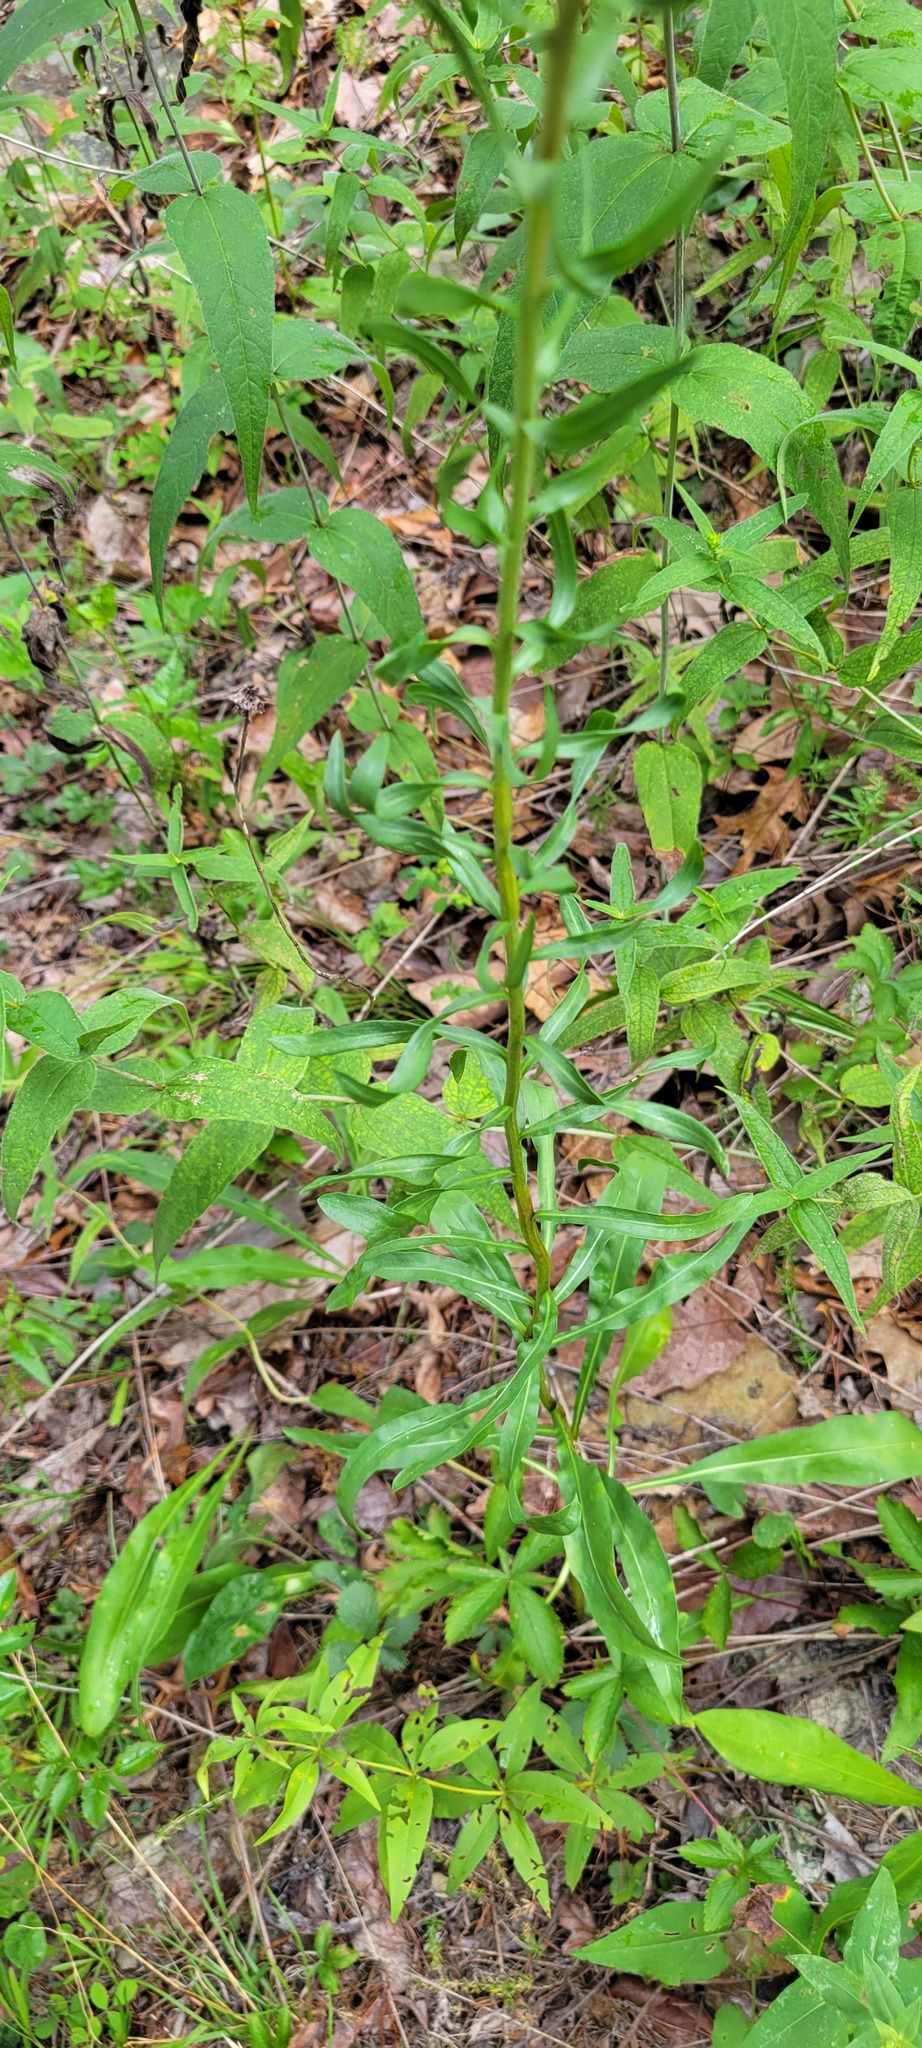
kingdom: Plantae
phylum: Tracheophyta
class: Magnoliopsida
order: Asterales
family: Asteraceae
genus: Liatris
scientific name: Liatris aspera
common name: Lacerate blazing-star
